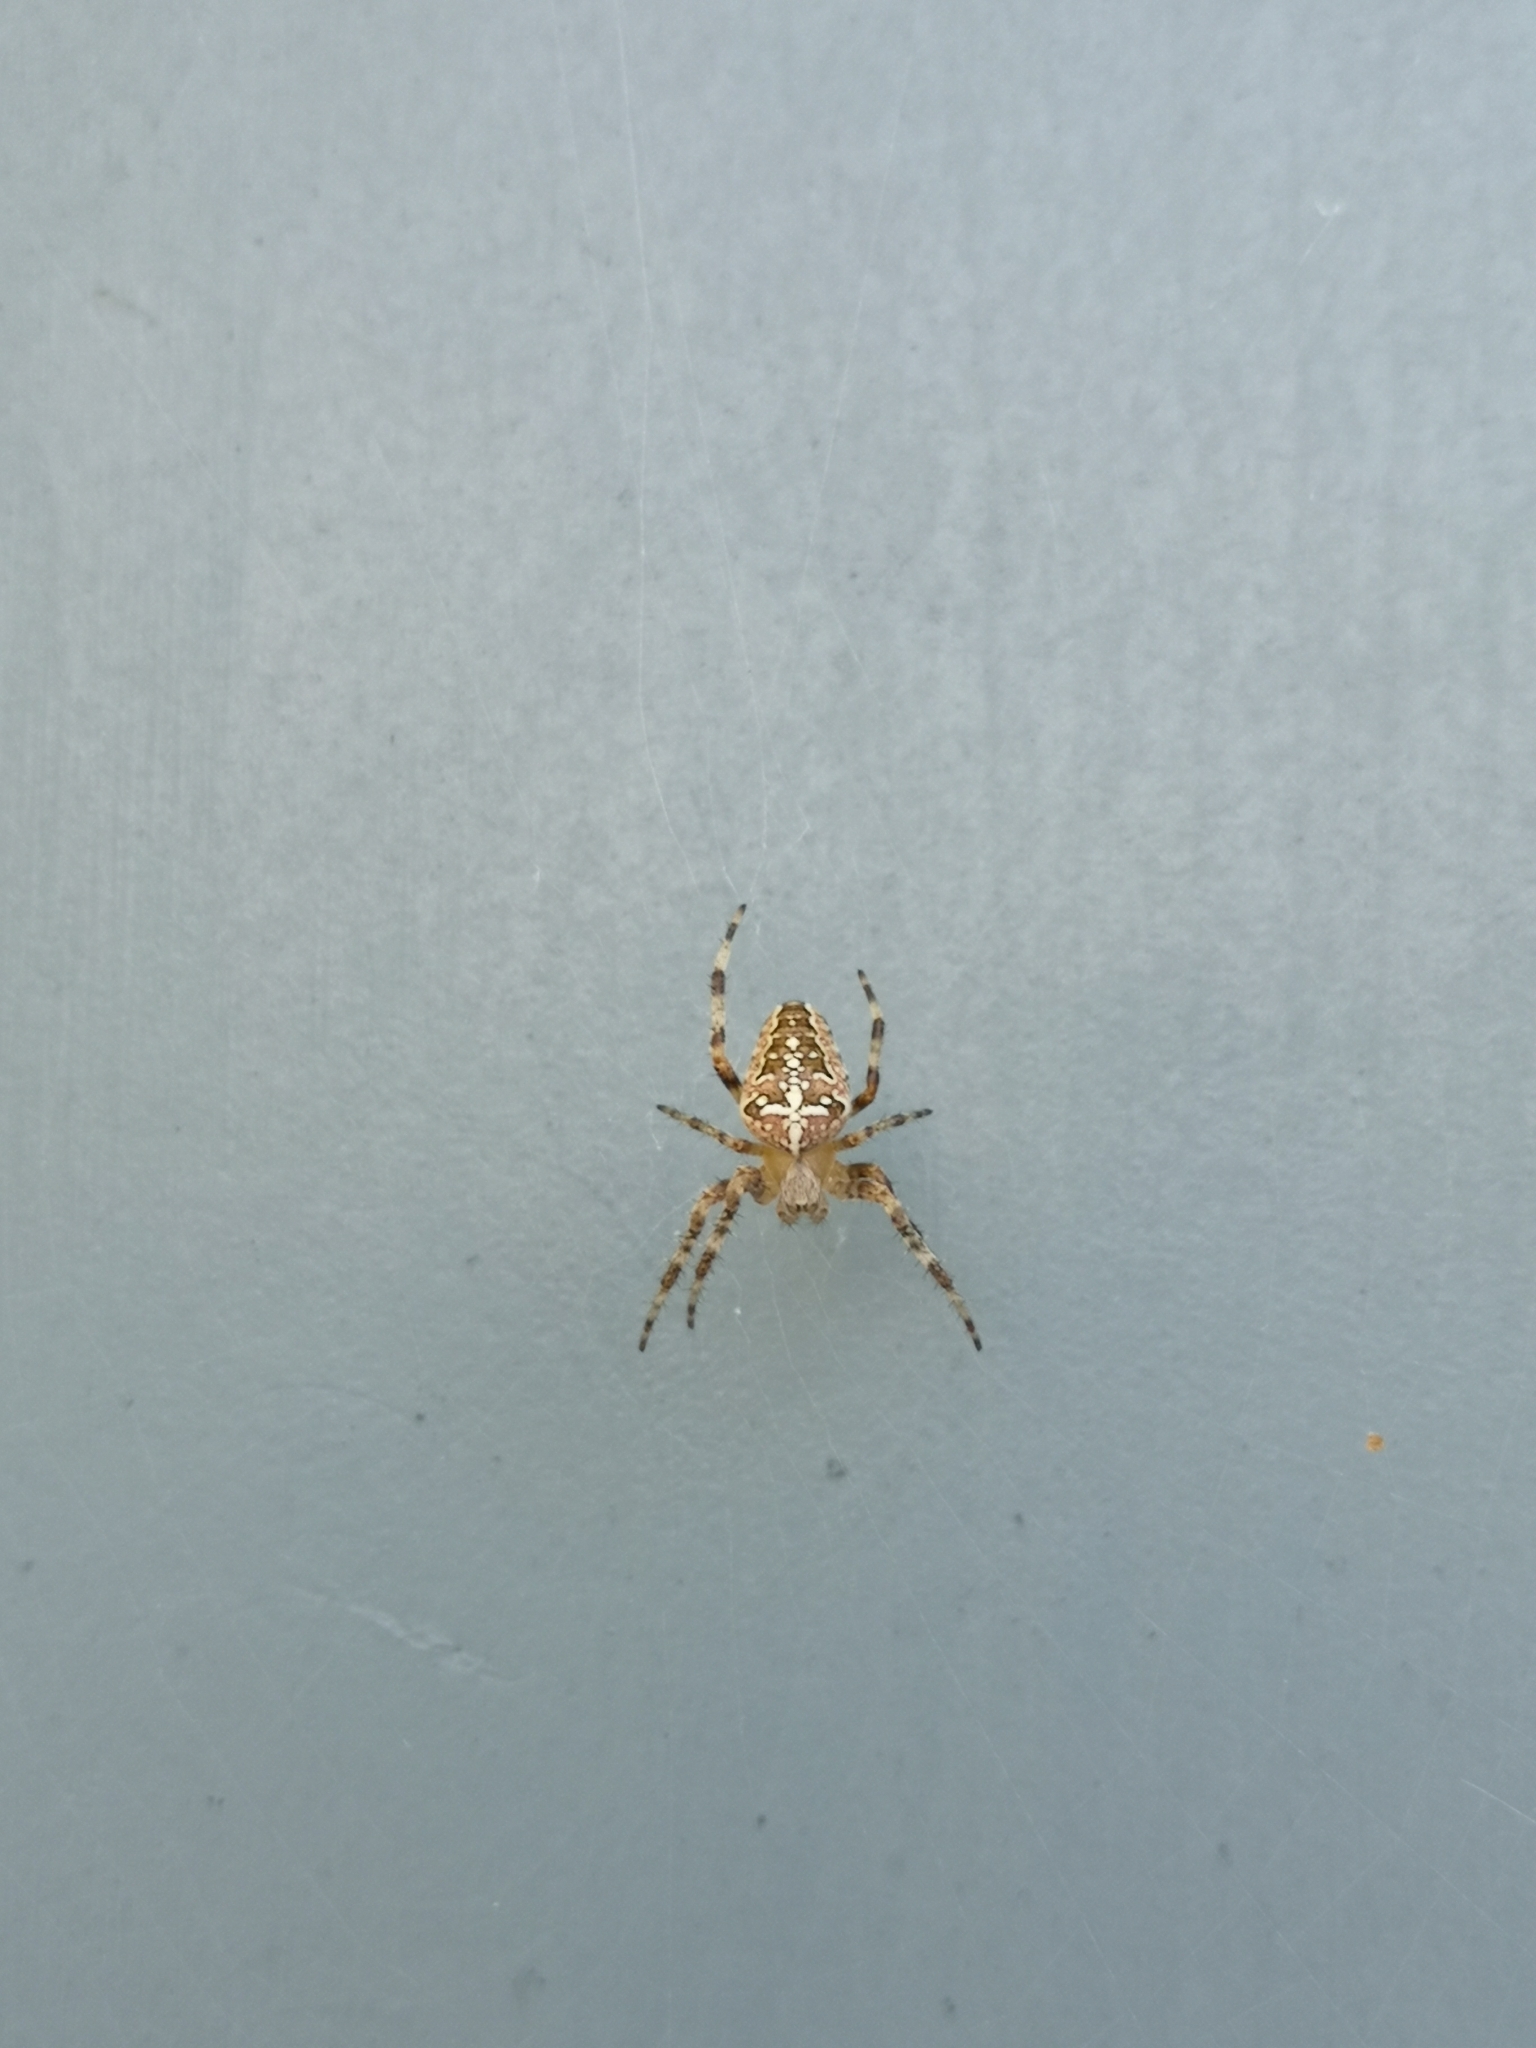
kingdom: Animalia
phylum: Arthropoda
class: Arachnida
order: Araneae
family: Araneidae
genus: Araneus
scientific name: Araneus diadematus
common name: Cross orbweaver
